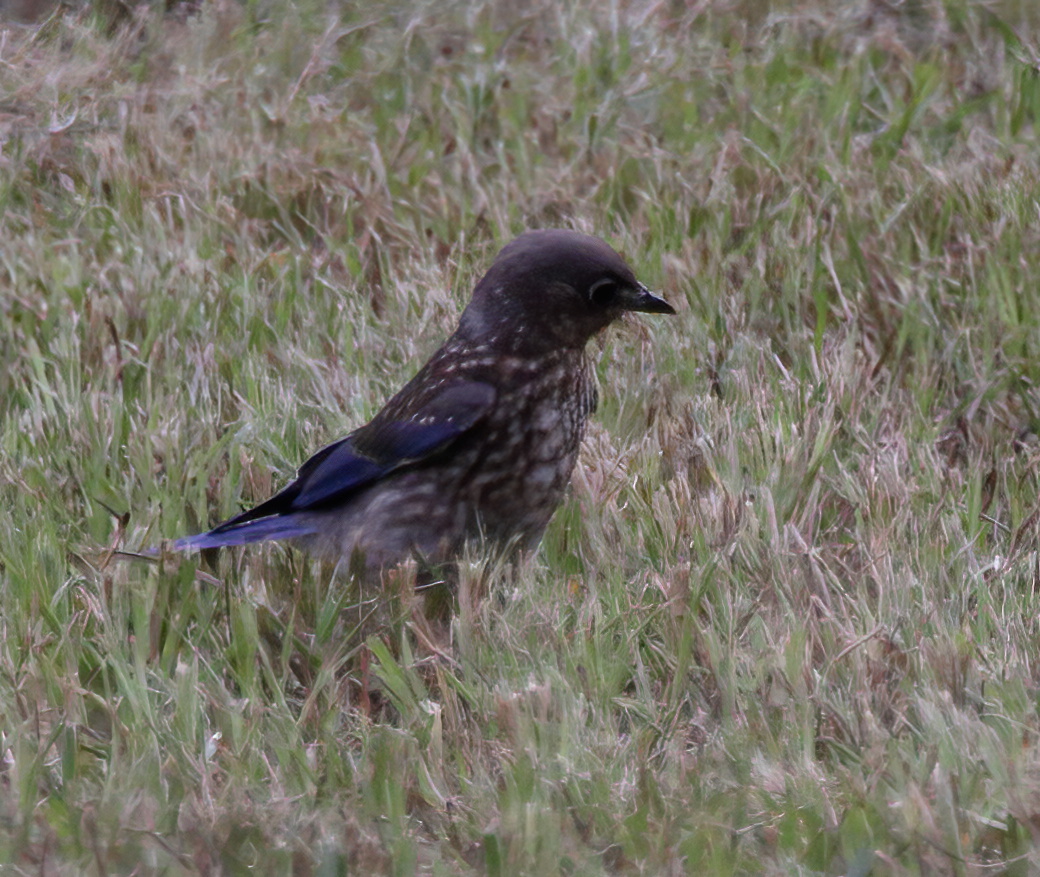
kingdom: Animalia
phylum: Chordata
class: Aves
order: Passeriformes
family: Turdidae
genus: Sialia
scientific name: Sialia sialis
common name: Eastern bluebird
